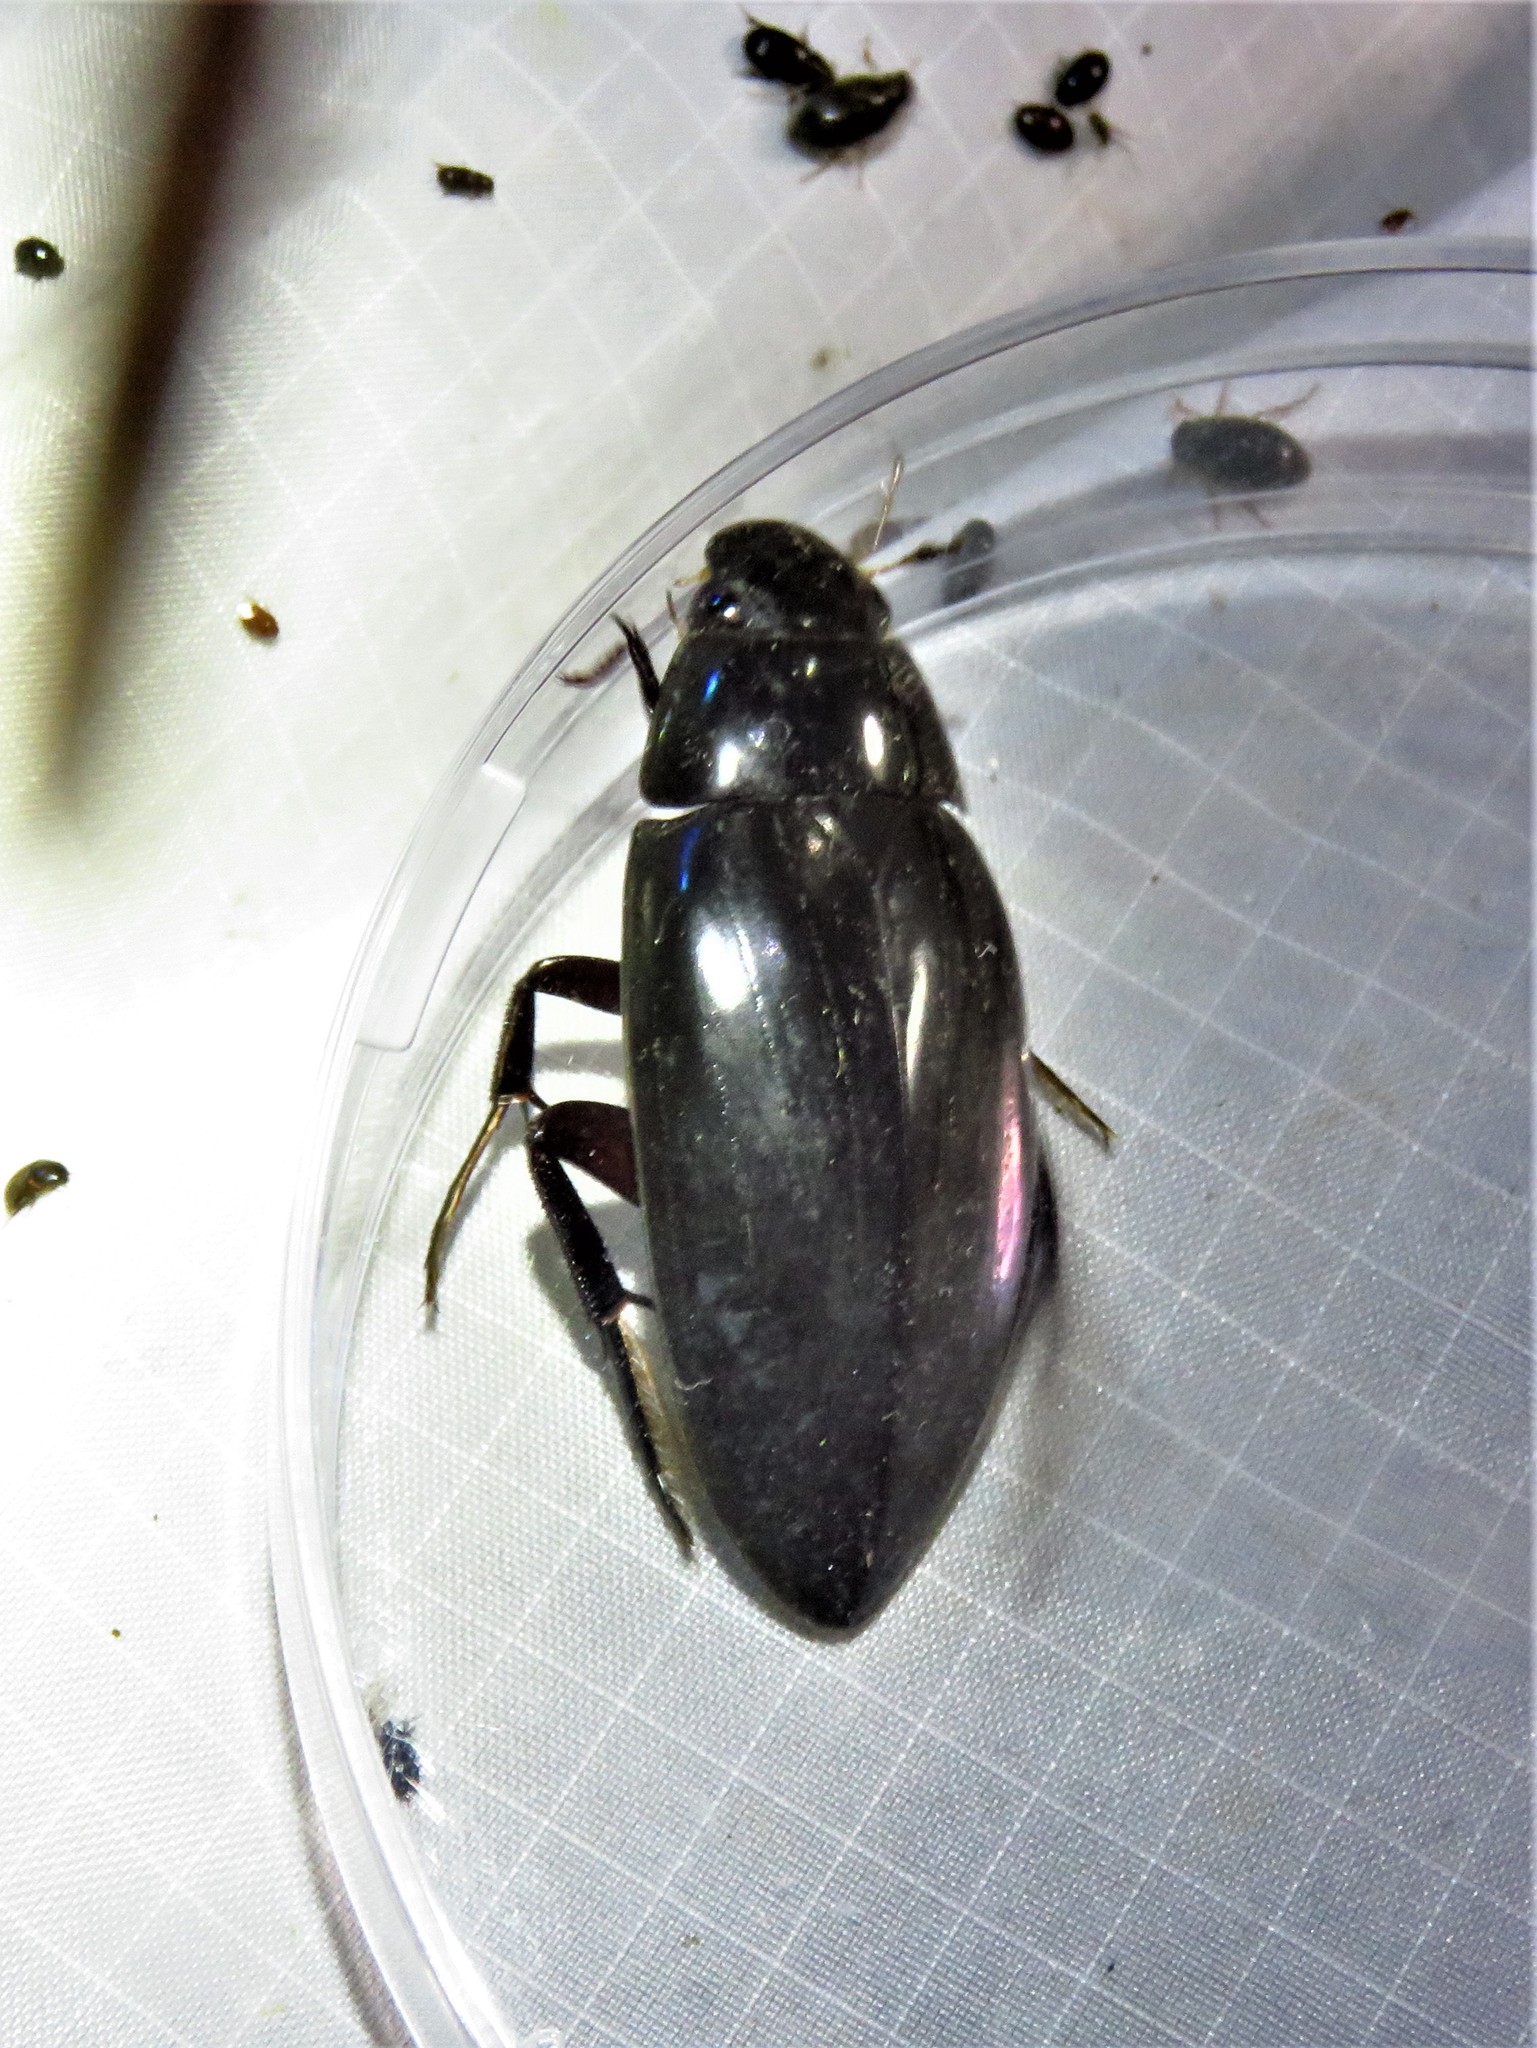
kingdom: Animalia
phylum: Arthropoda
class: Insecta
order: Coleoptera
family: Hydrophilidae
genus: Hydrophilus
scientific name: Hydrophilus triangularis
